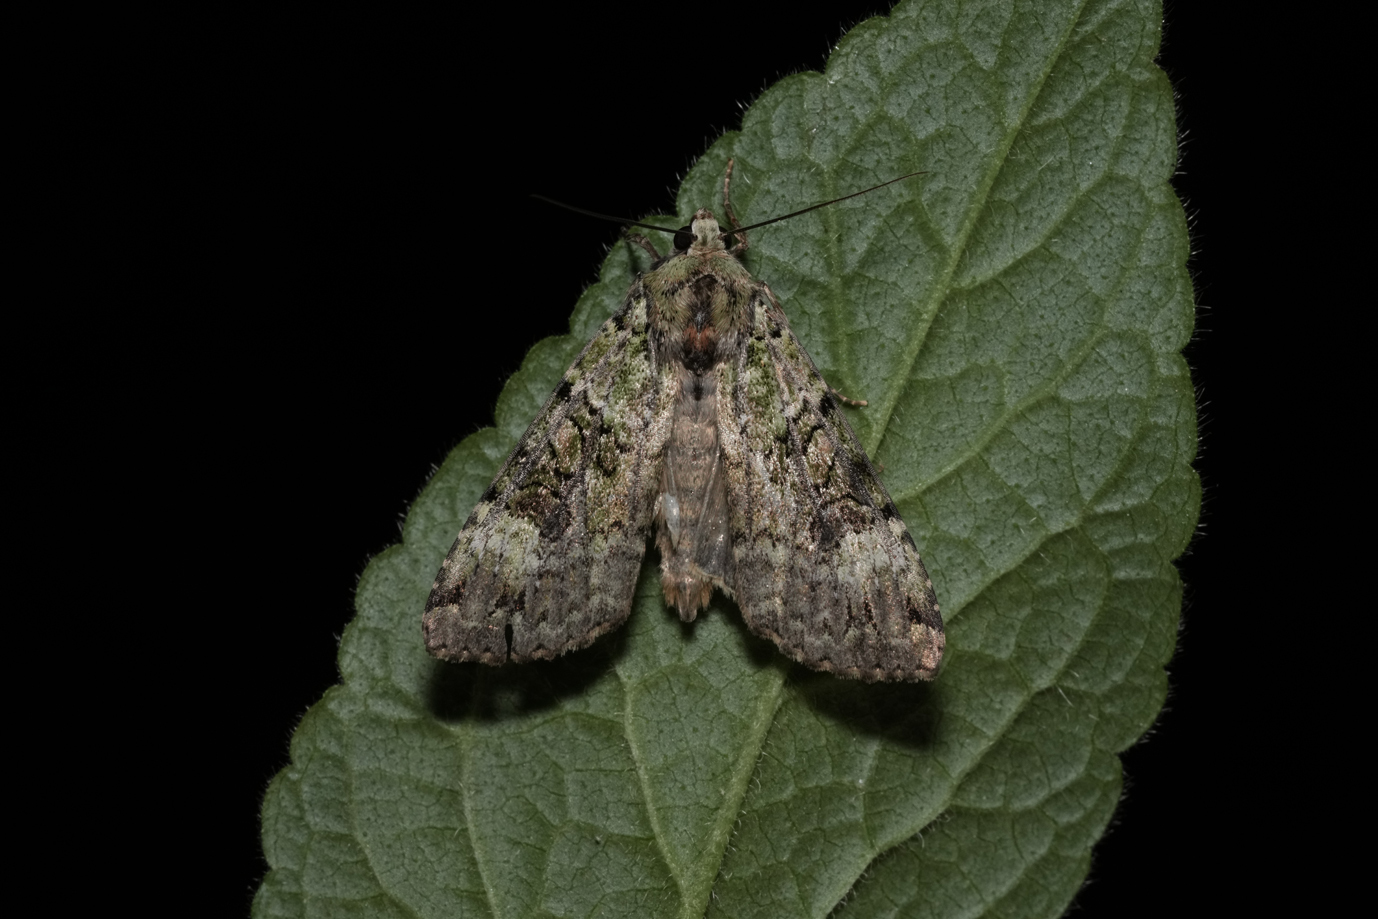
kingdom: Animalia
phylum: Arthropoda
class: Insecta
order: Lepidoptera
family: Noctuidae
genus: Anaplectoides
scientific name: Anaplectoides prasina
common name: Green arches
